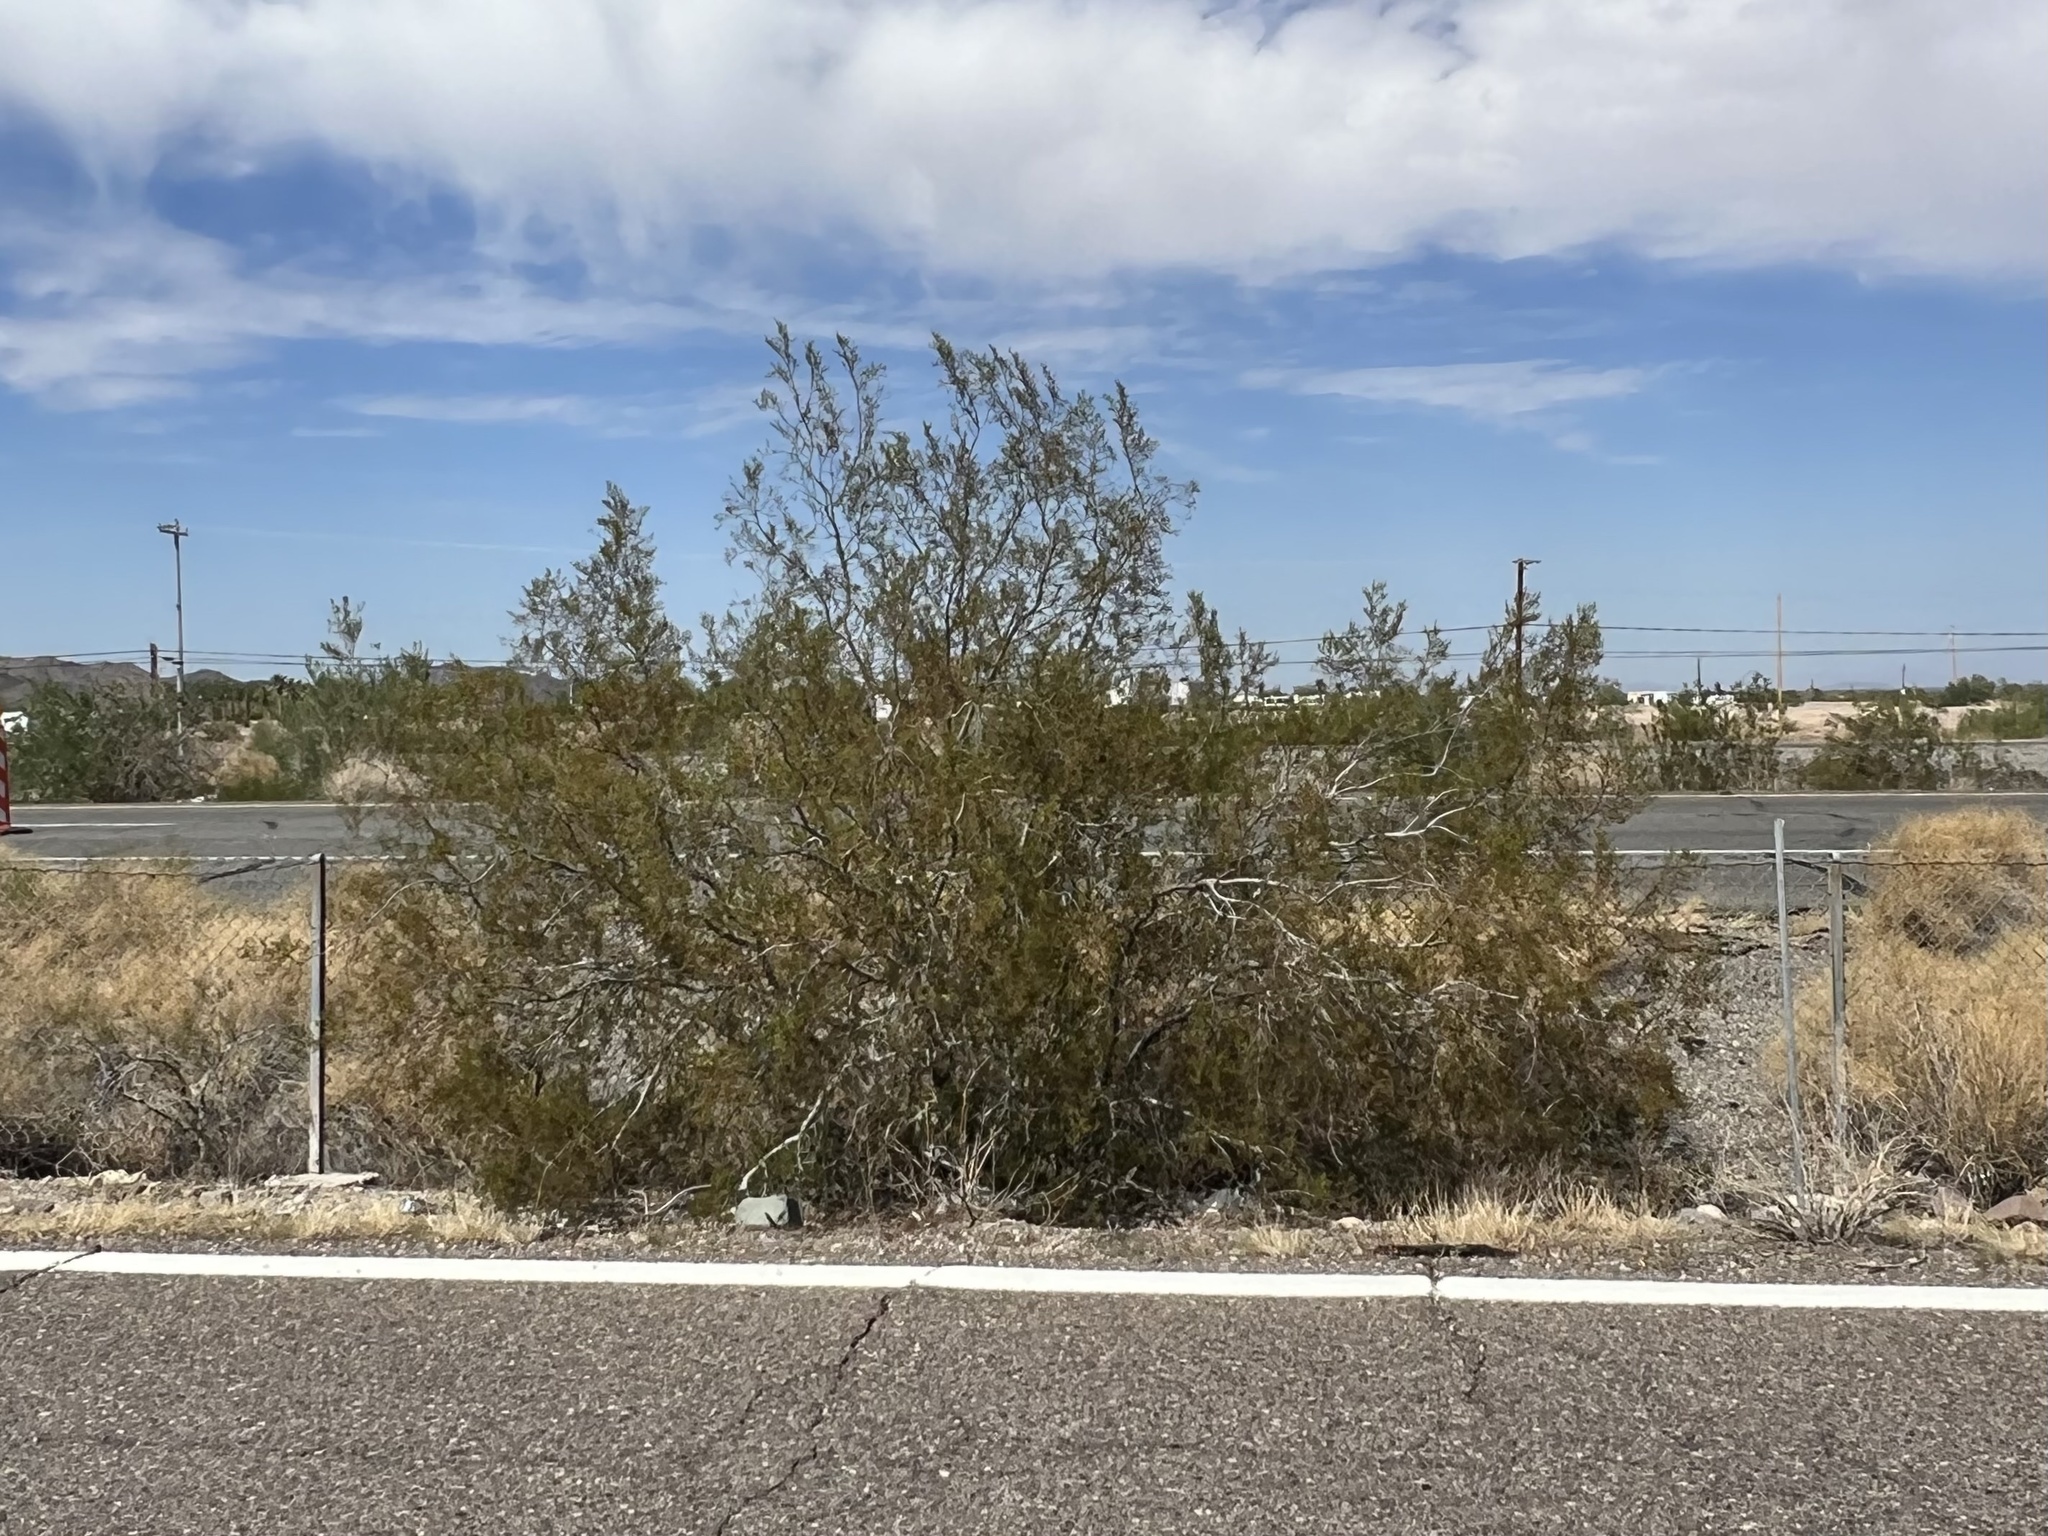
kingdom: Plantae
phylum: Tracheophyta
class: Magnoliopsida
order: Zygophyllales
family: Zygophyllaceae
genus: Larrea
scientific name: Larrea tridentata
